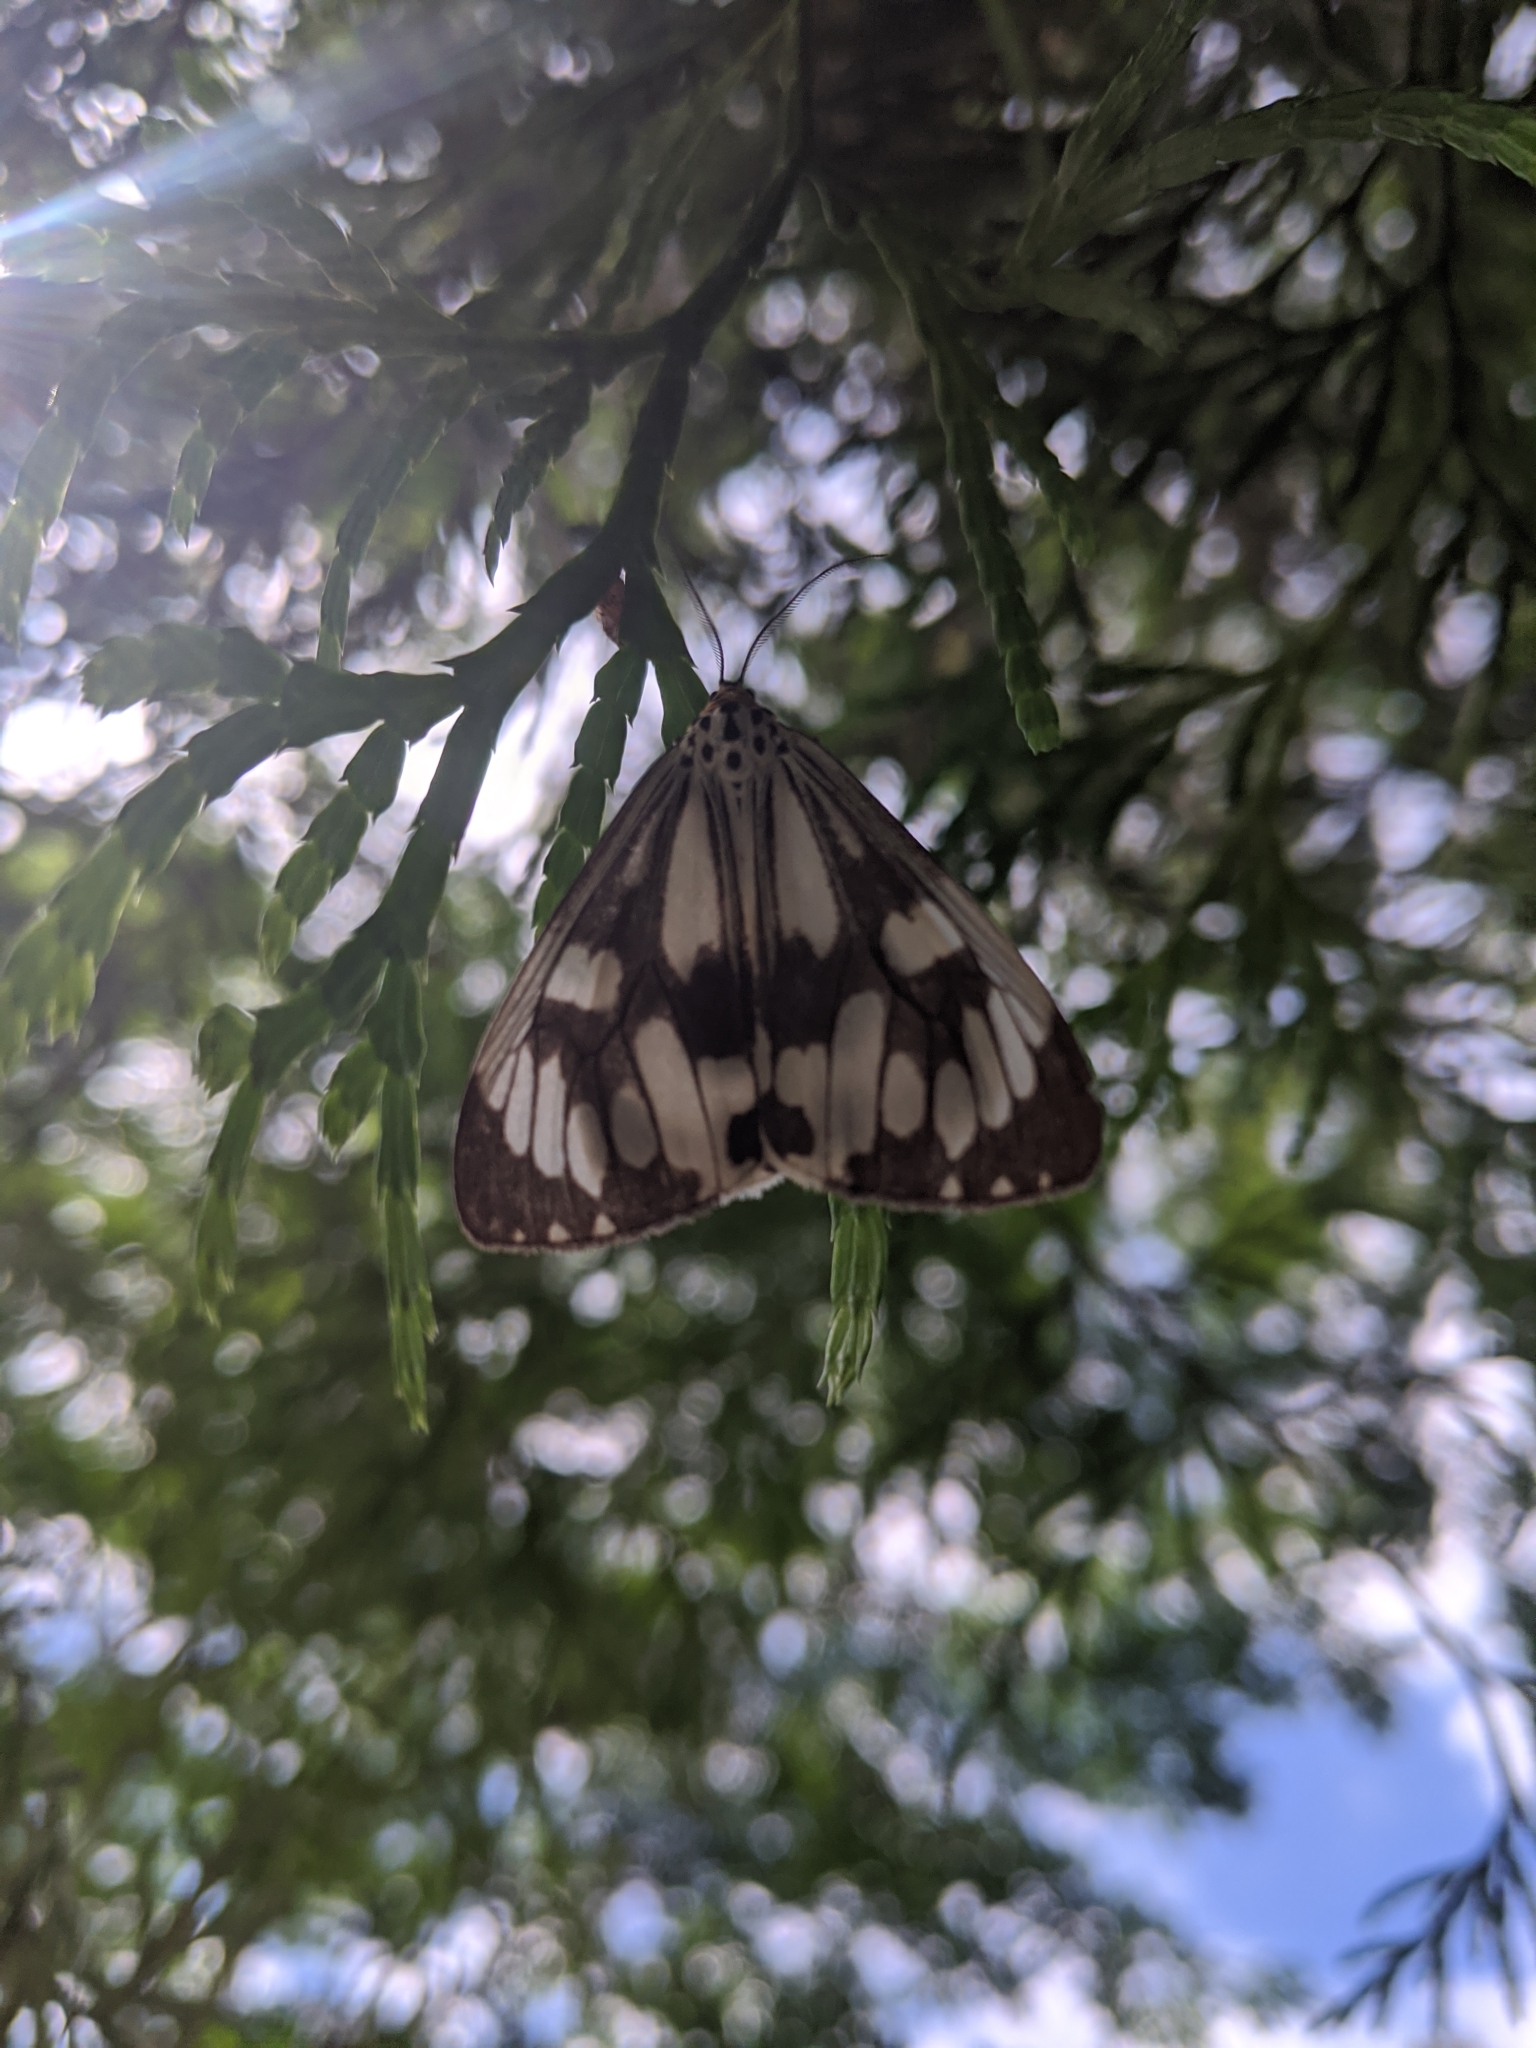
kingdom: Animalia
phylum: Arthropoda
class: Insecta
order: Lepidoptera
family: Erebidae
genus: Nyctemera
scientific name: Nyctemera adversata
